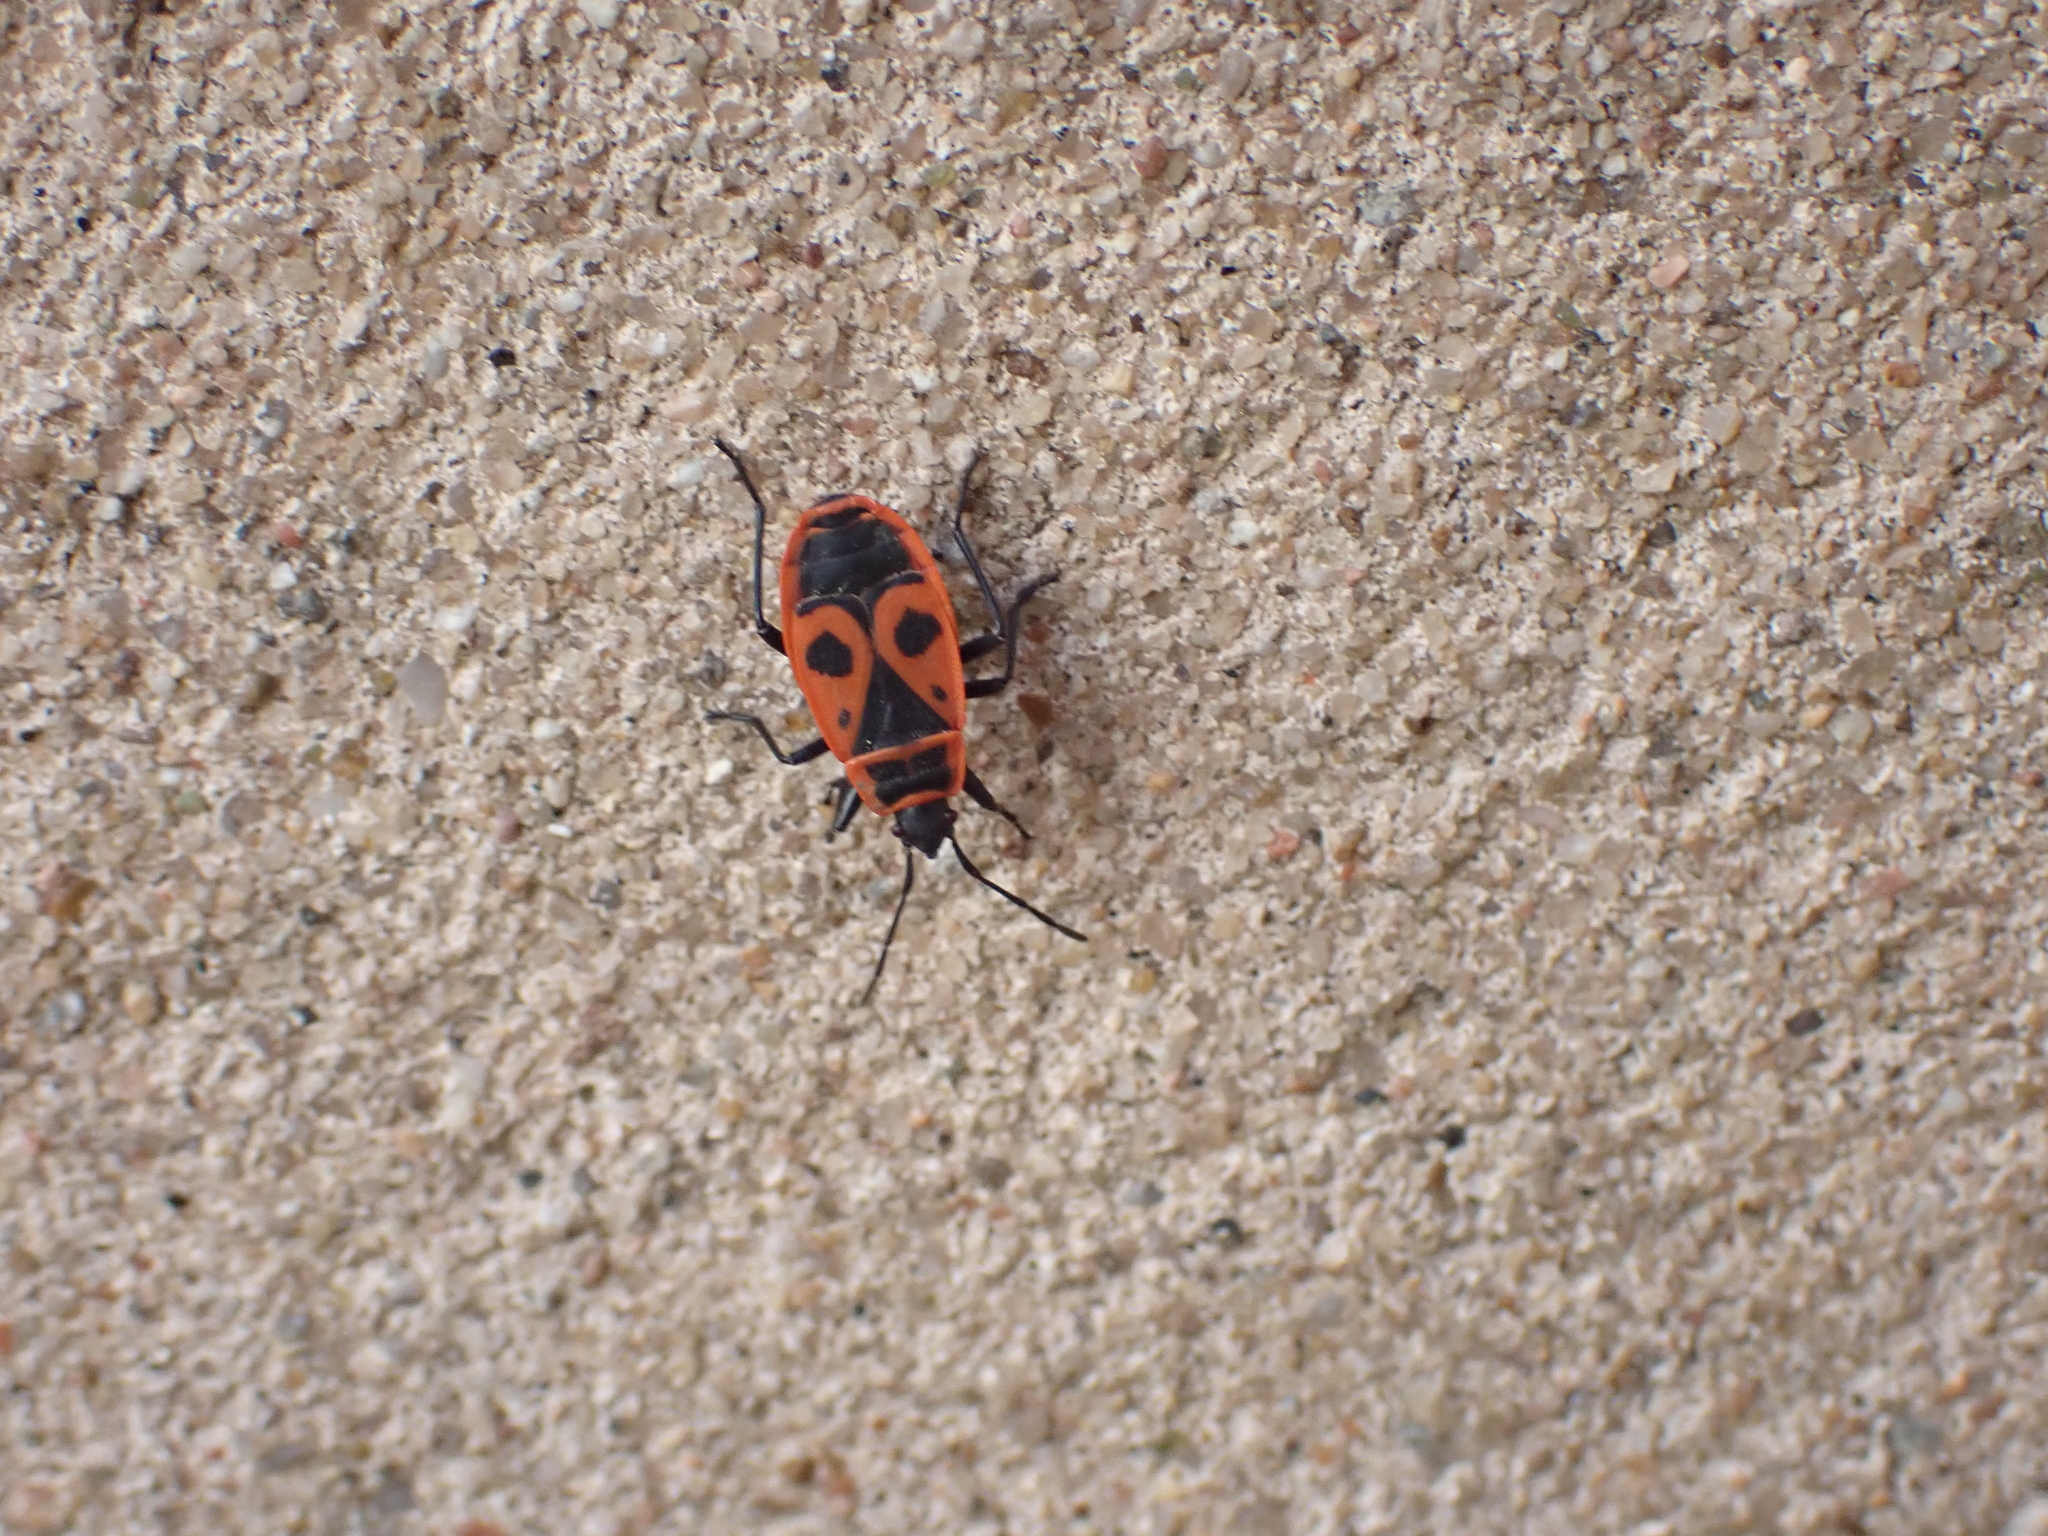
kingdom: Animalia
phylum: Arthropoda
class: Insecta
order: Hemiptera
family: Pyrrhocoridae
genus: Pyrrhocoris
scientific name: Pyrrhocoris apterus
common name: Firebug
